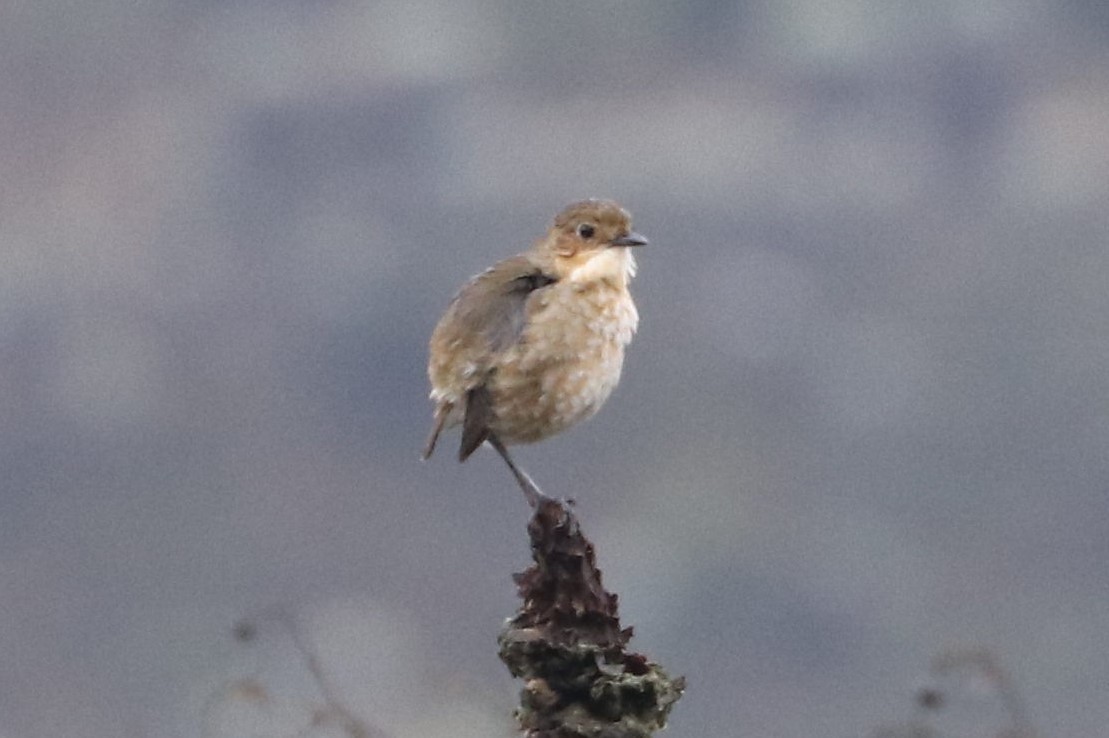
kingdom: Animalia
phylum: Chordata
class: Aves
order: Passeriformes
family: Grallariidae
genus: Grallaria
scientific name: Grallaria alticola
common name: Boyaca antpitta
